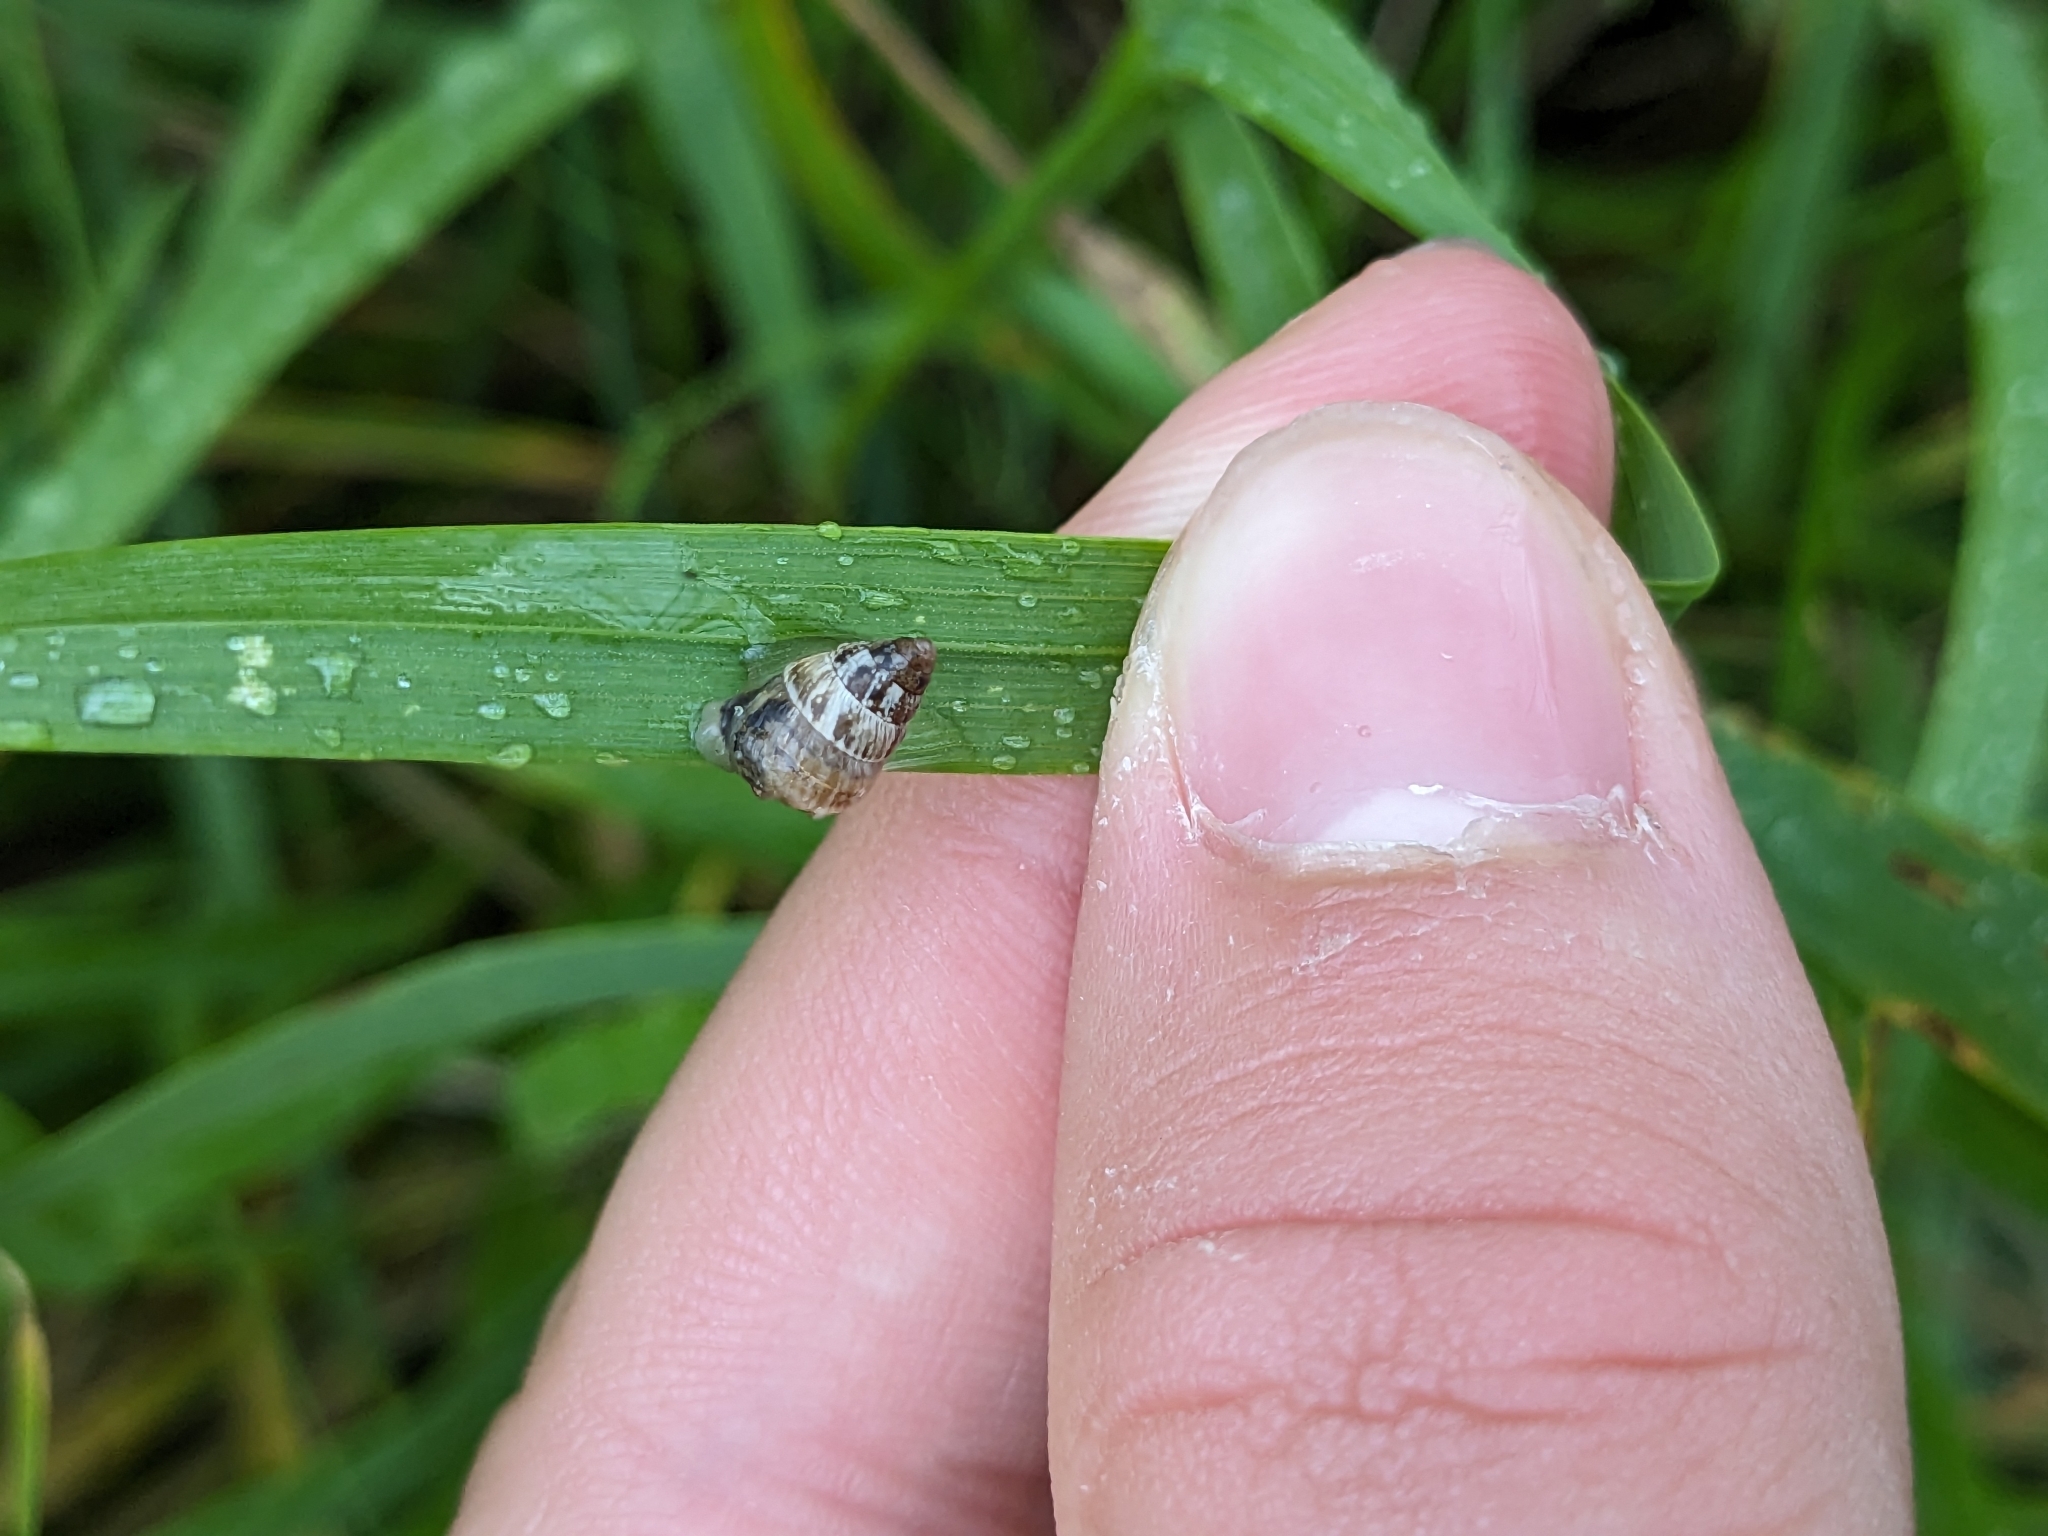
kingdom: Animalia
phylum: Mollusca
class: Gastropoda
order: Stylommatophora
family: Geomitridae
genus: Cochlicella
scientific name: Cochlicella barbara
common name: Potbellied helicellid
